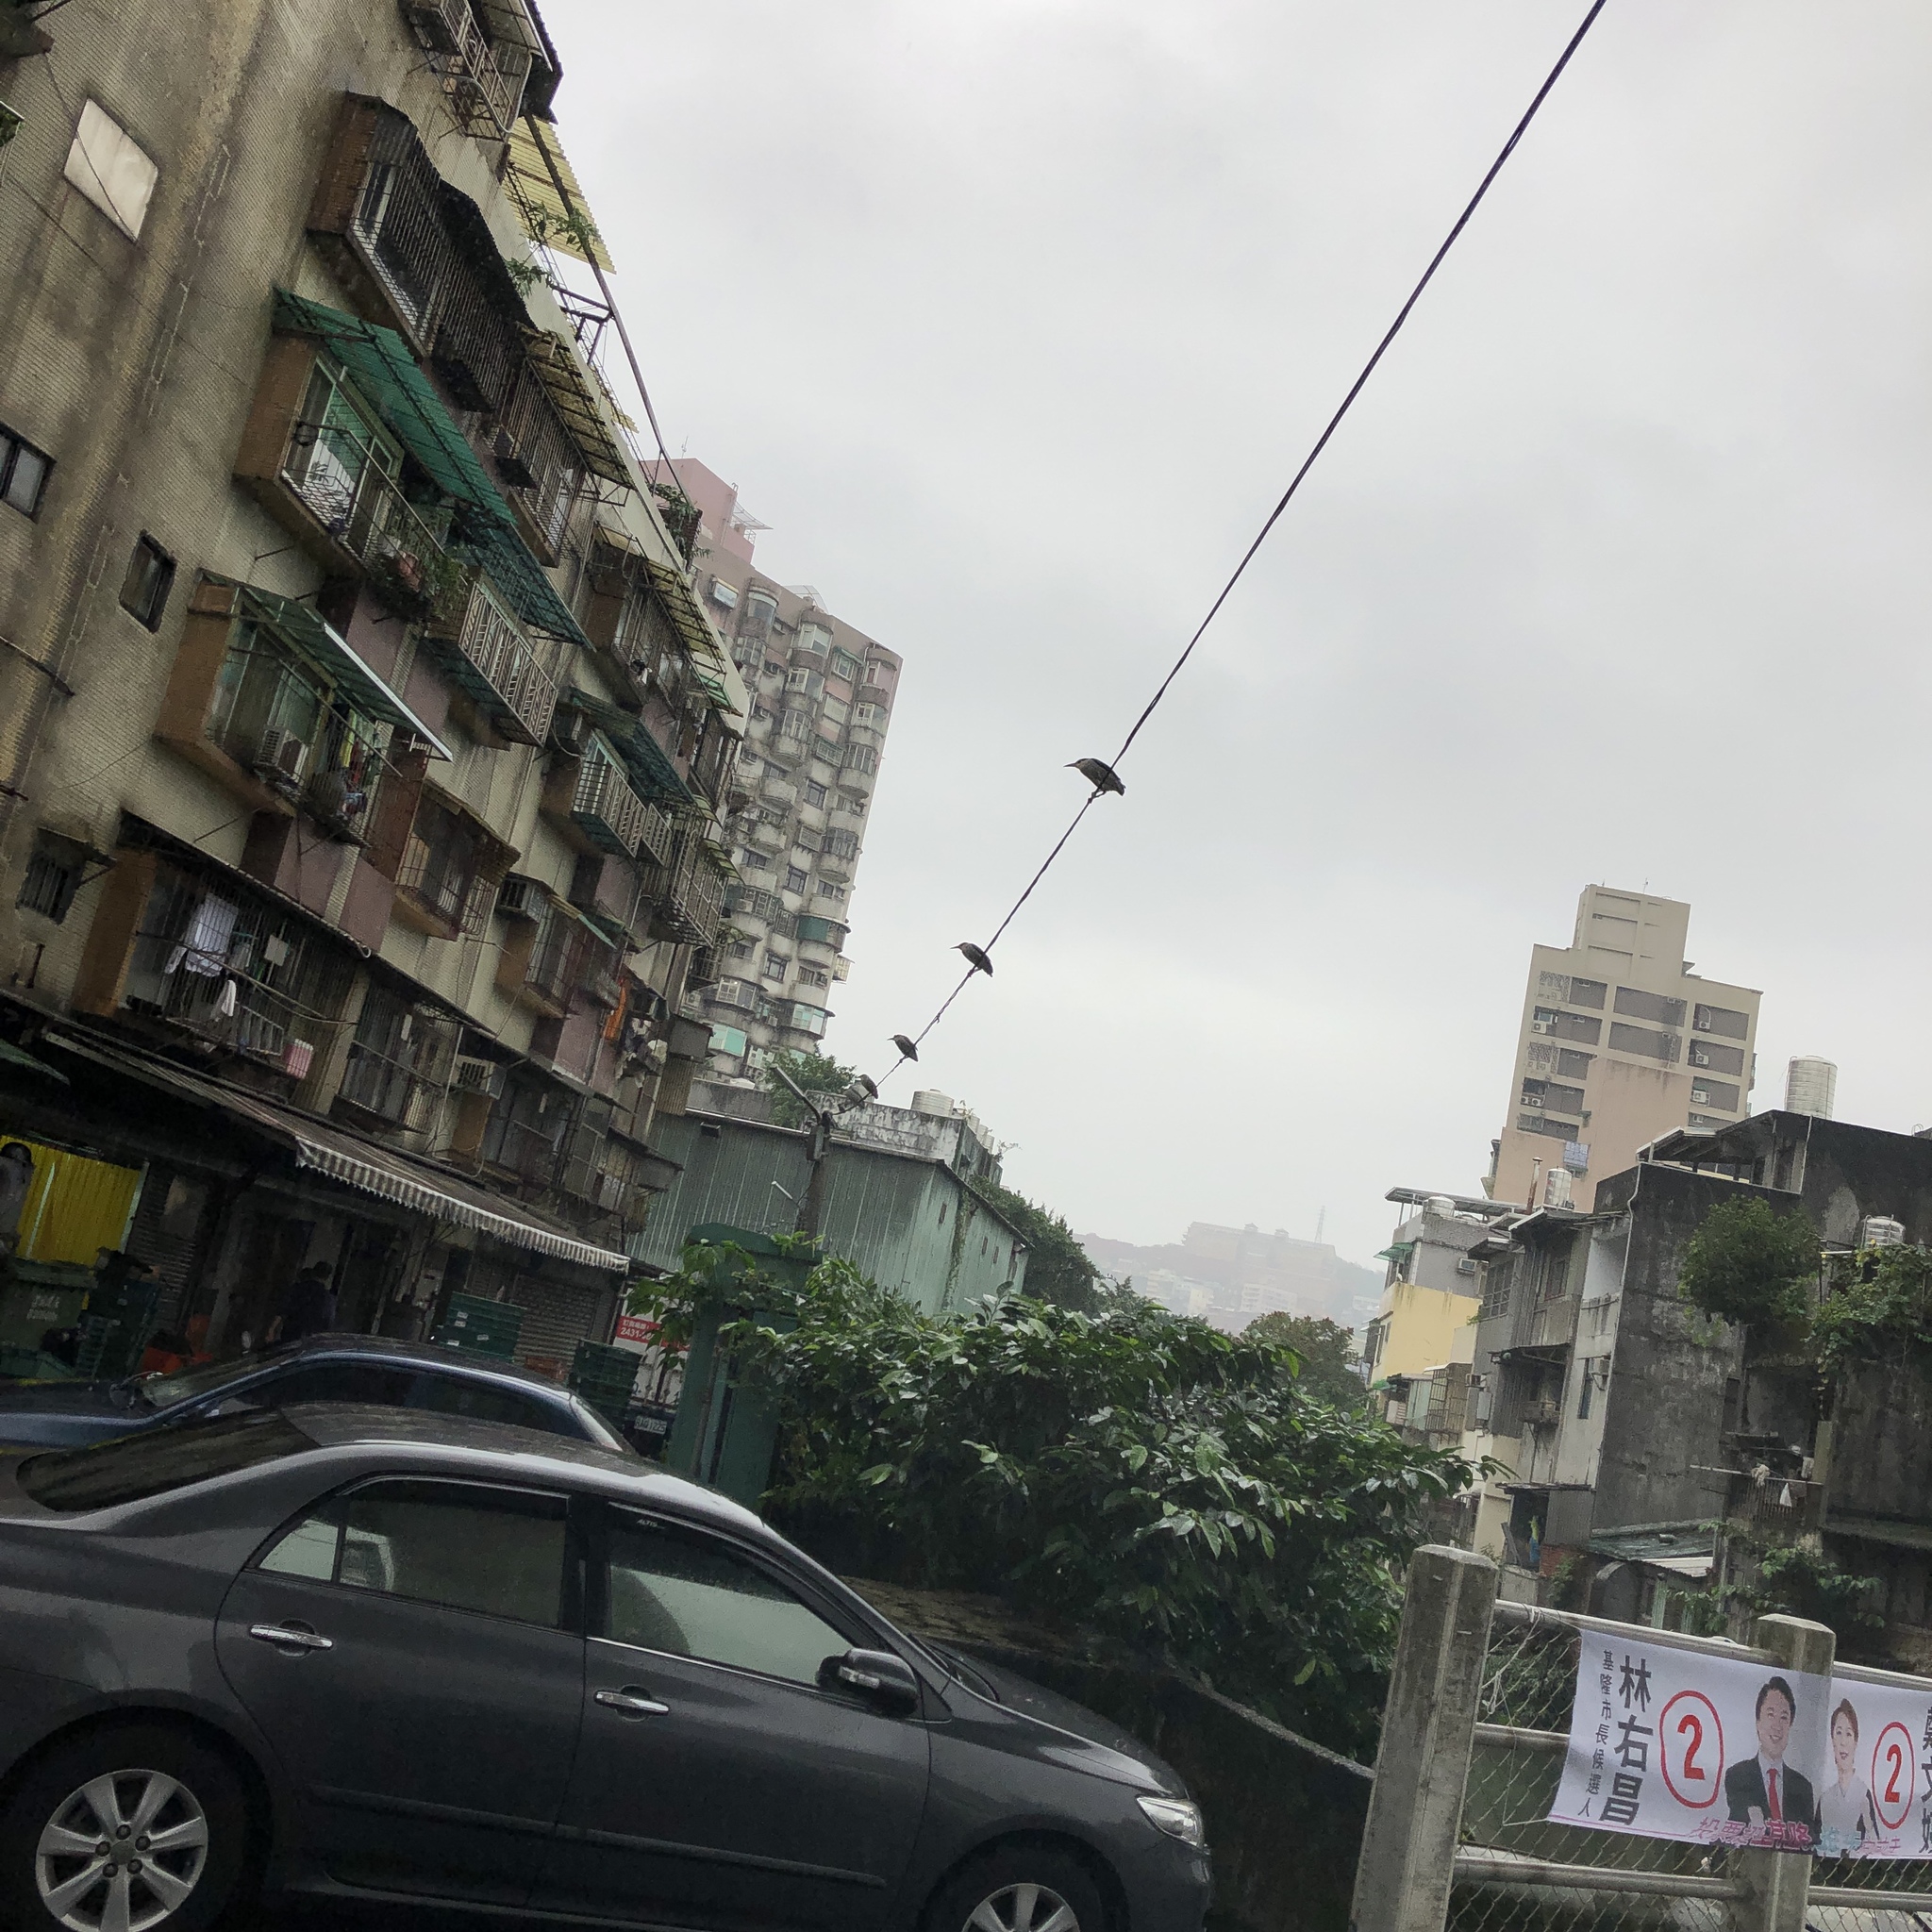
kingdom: Animalia
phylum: Chordata
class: Aves
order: Pelecaniformes
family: Ardeidae
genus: Nycticorax
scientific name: Nycticorax nycticorax
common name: Black-crowned night heron
